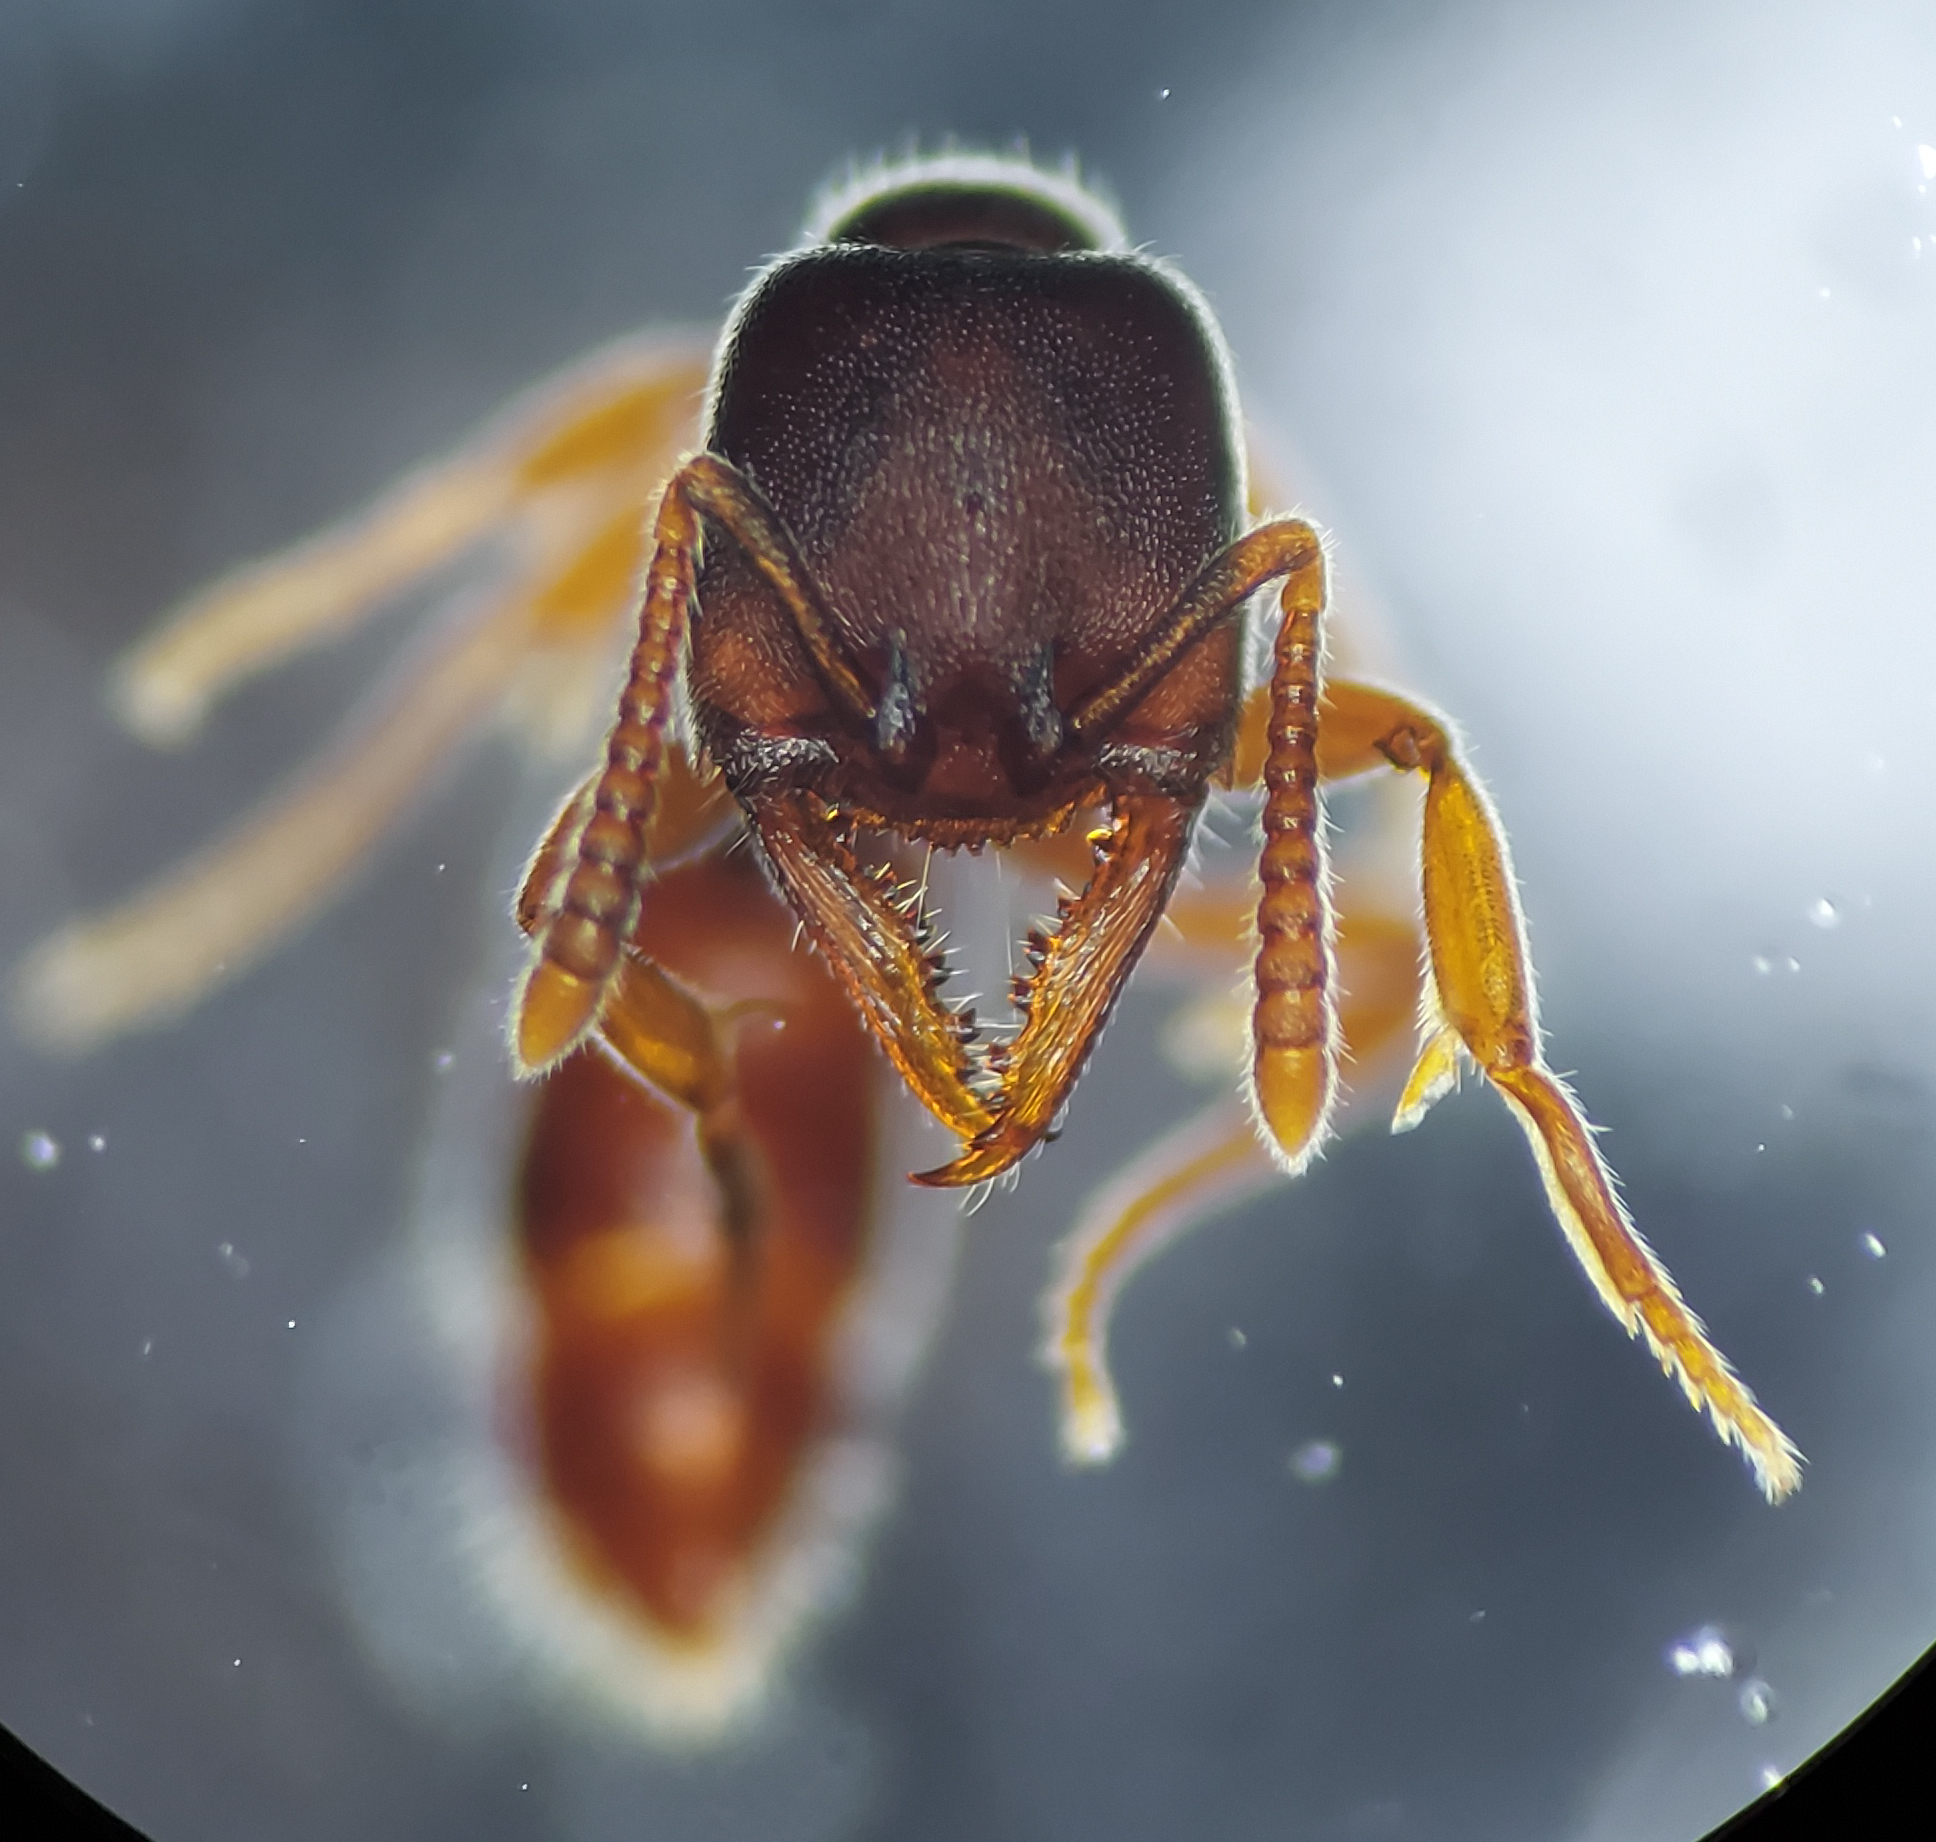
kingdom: Animalia
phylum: Arthropoda
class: Insecta
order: Hymenoptera
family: Formicidae
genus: Stigmatomma
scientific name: Stigmatomma pallipes
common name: Vampire ant
